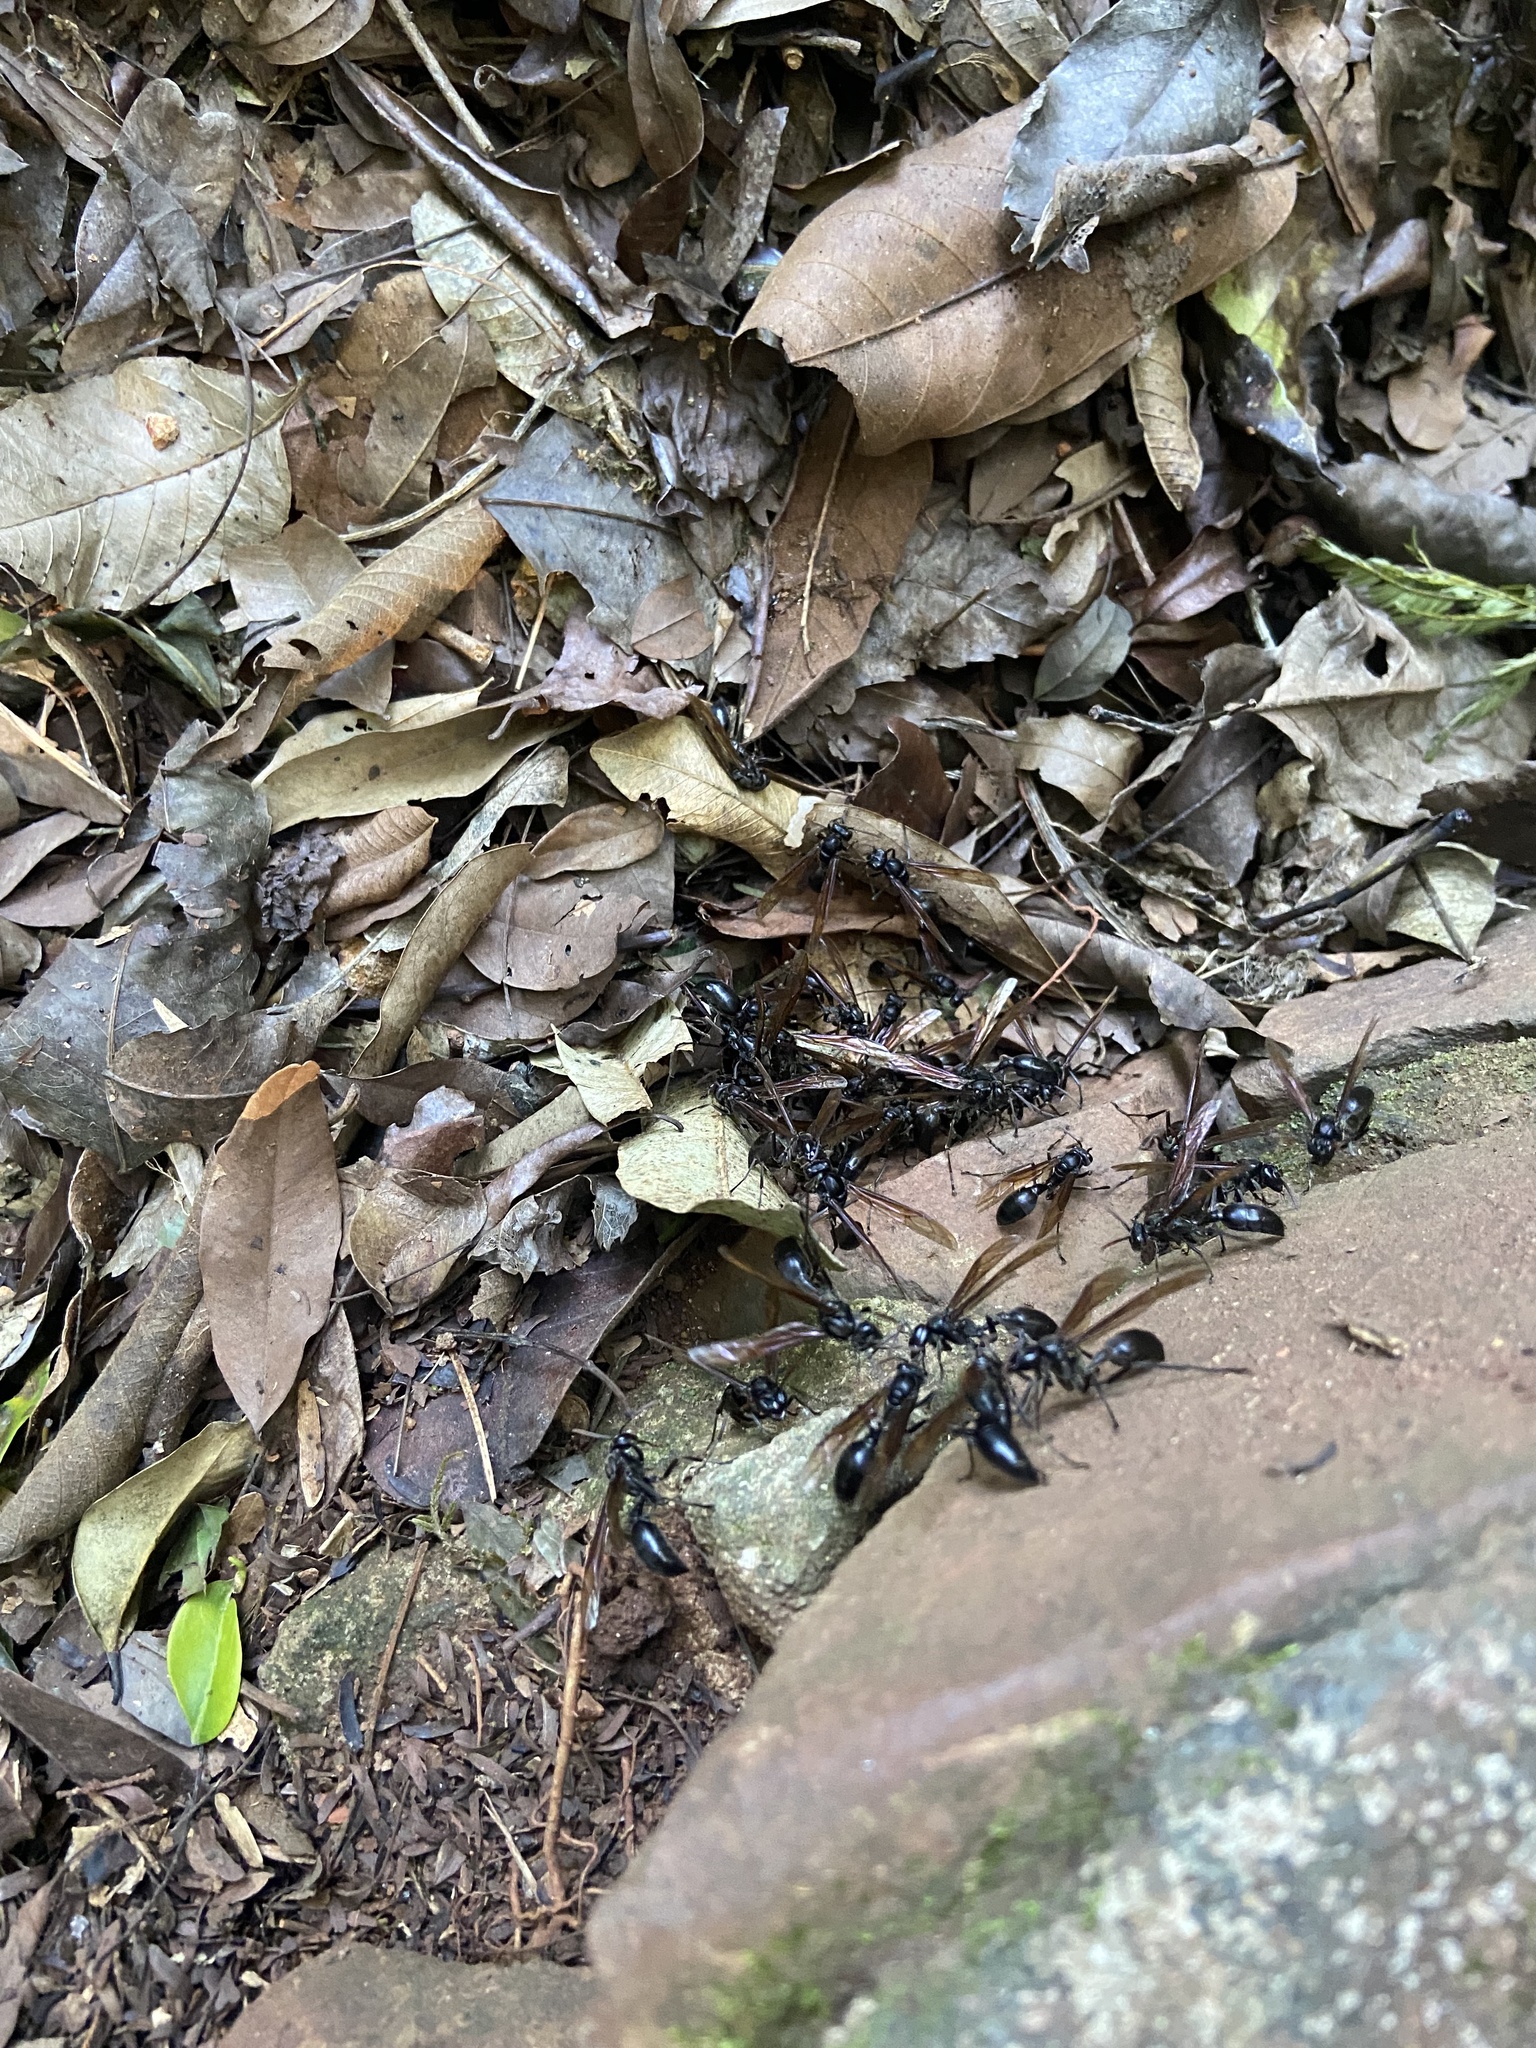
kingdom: Animalia
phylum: Arthropoda
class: Insecta
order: Hymenoptera
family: Vespidae
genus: Agelaia
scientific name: Agelaia angulata
